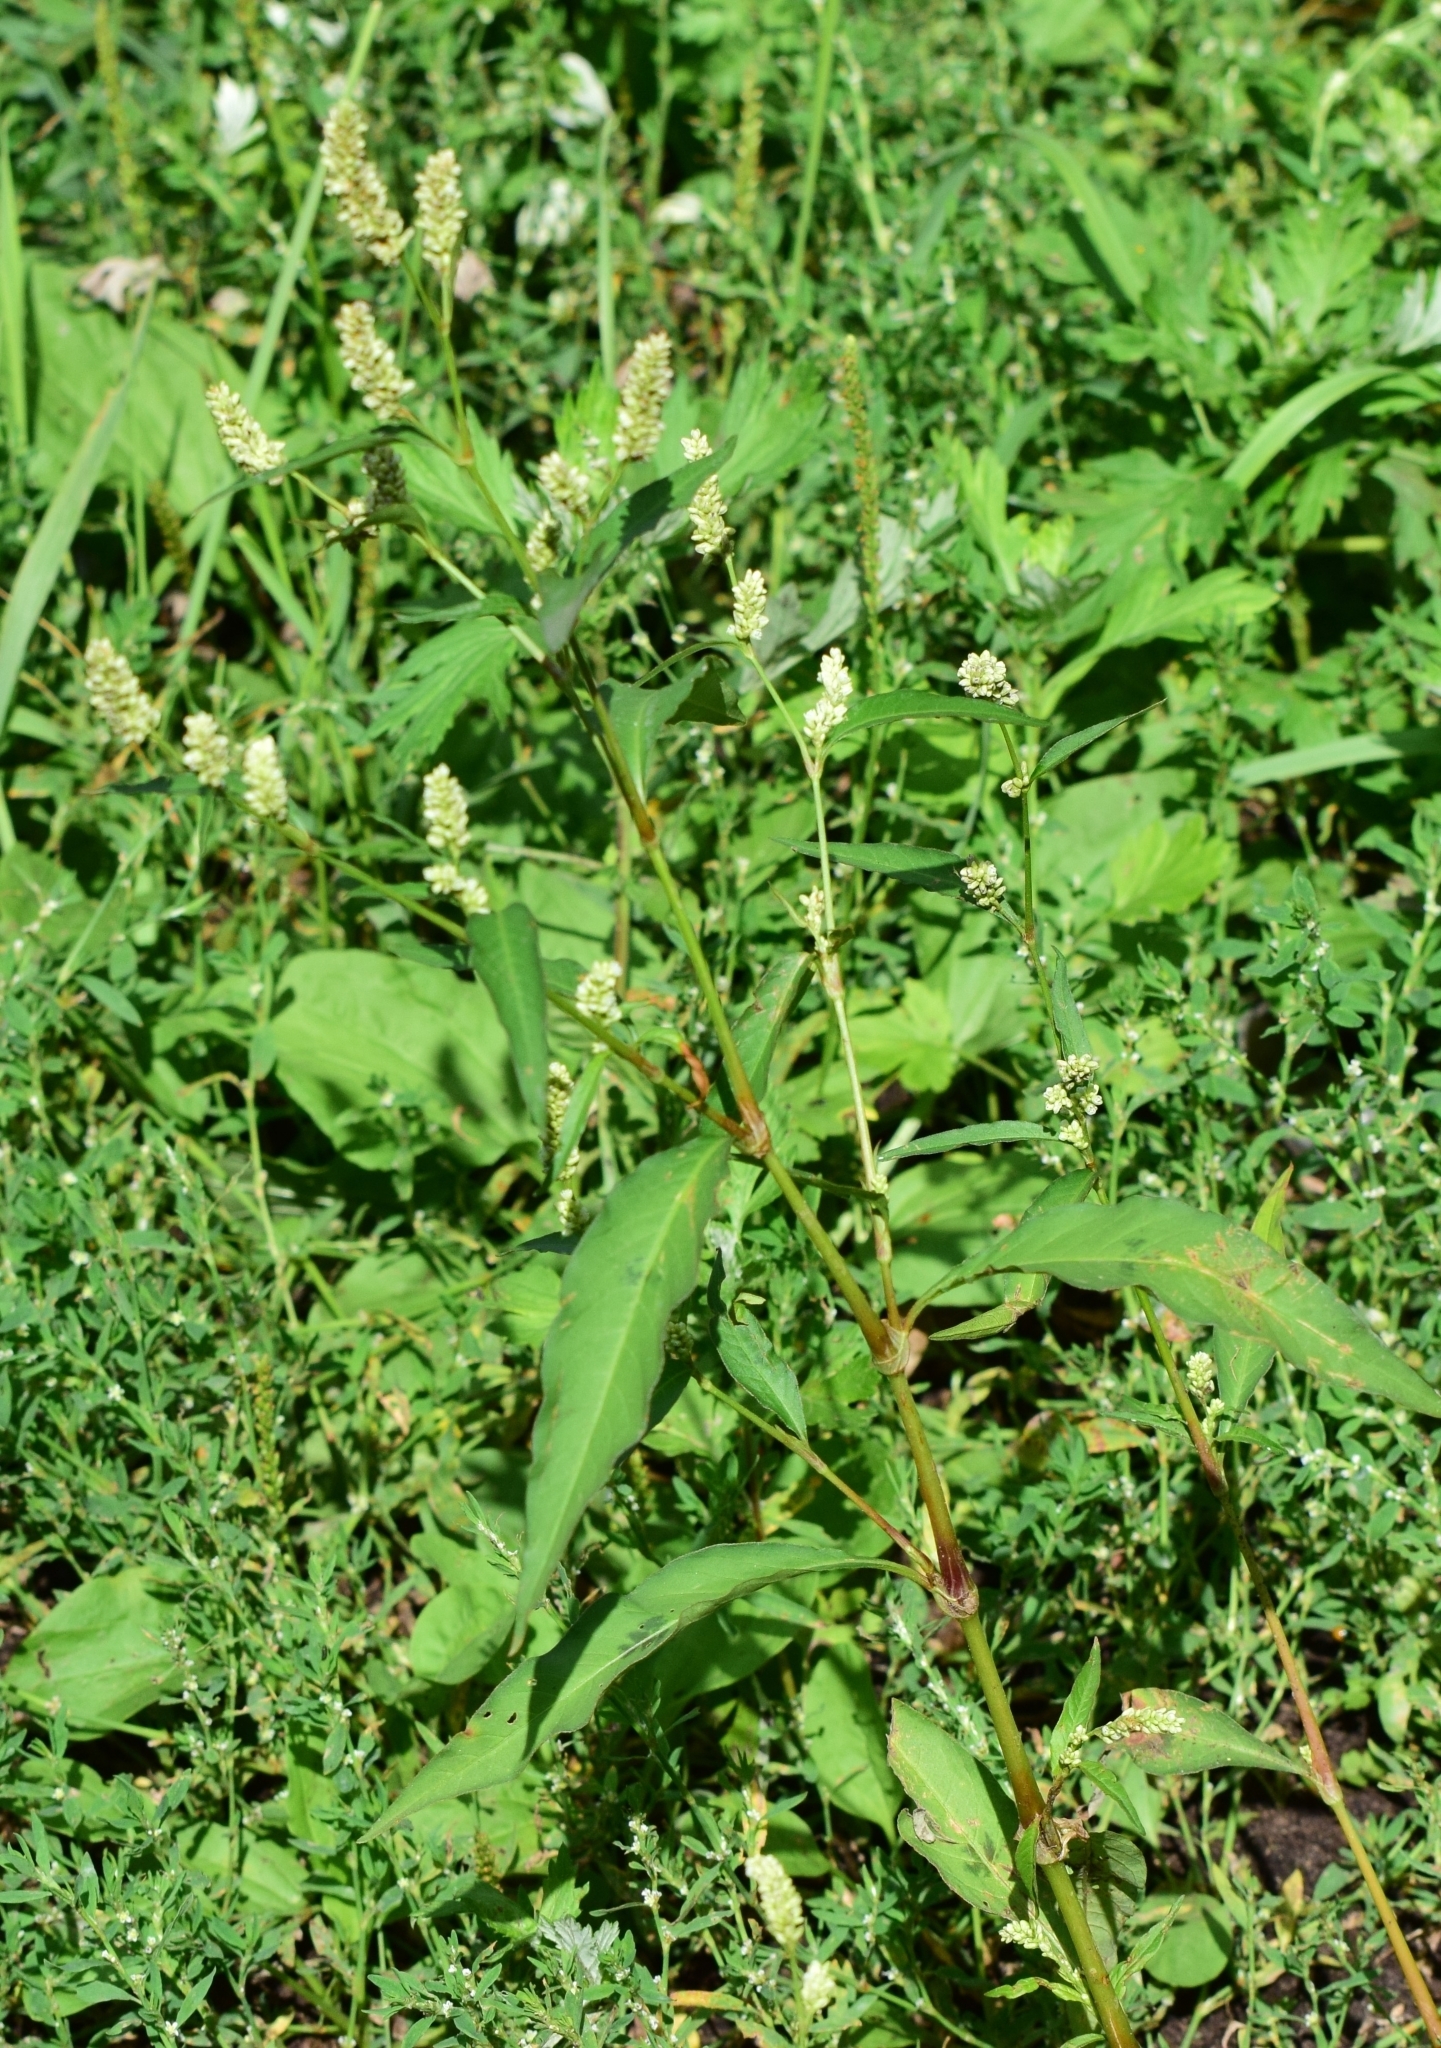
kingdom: Plantae
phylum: Tracheophyta
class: Magnoliopsida
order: Caryophyllales
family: Polygonaceae
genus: Persicaria
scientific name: Persicaria lapathifolia
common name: Curlytop knotweed
